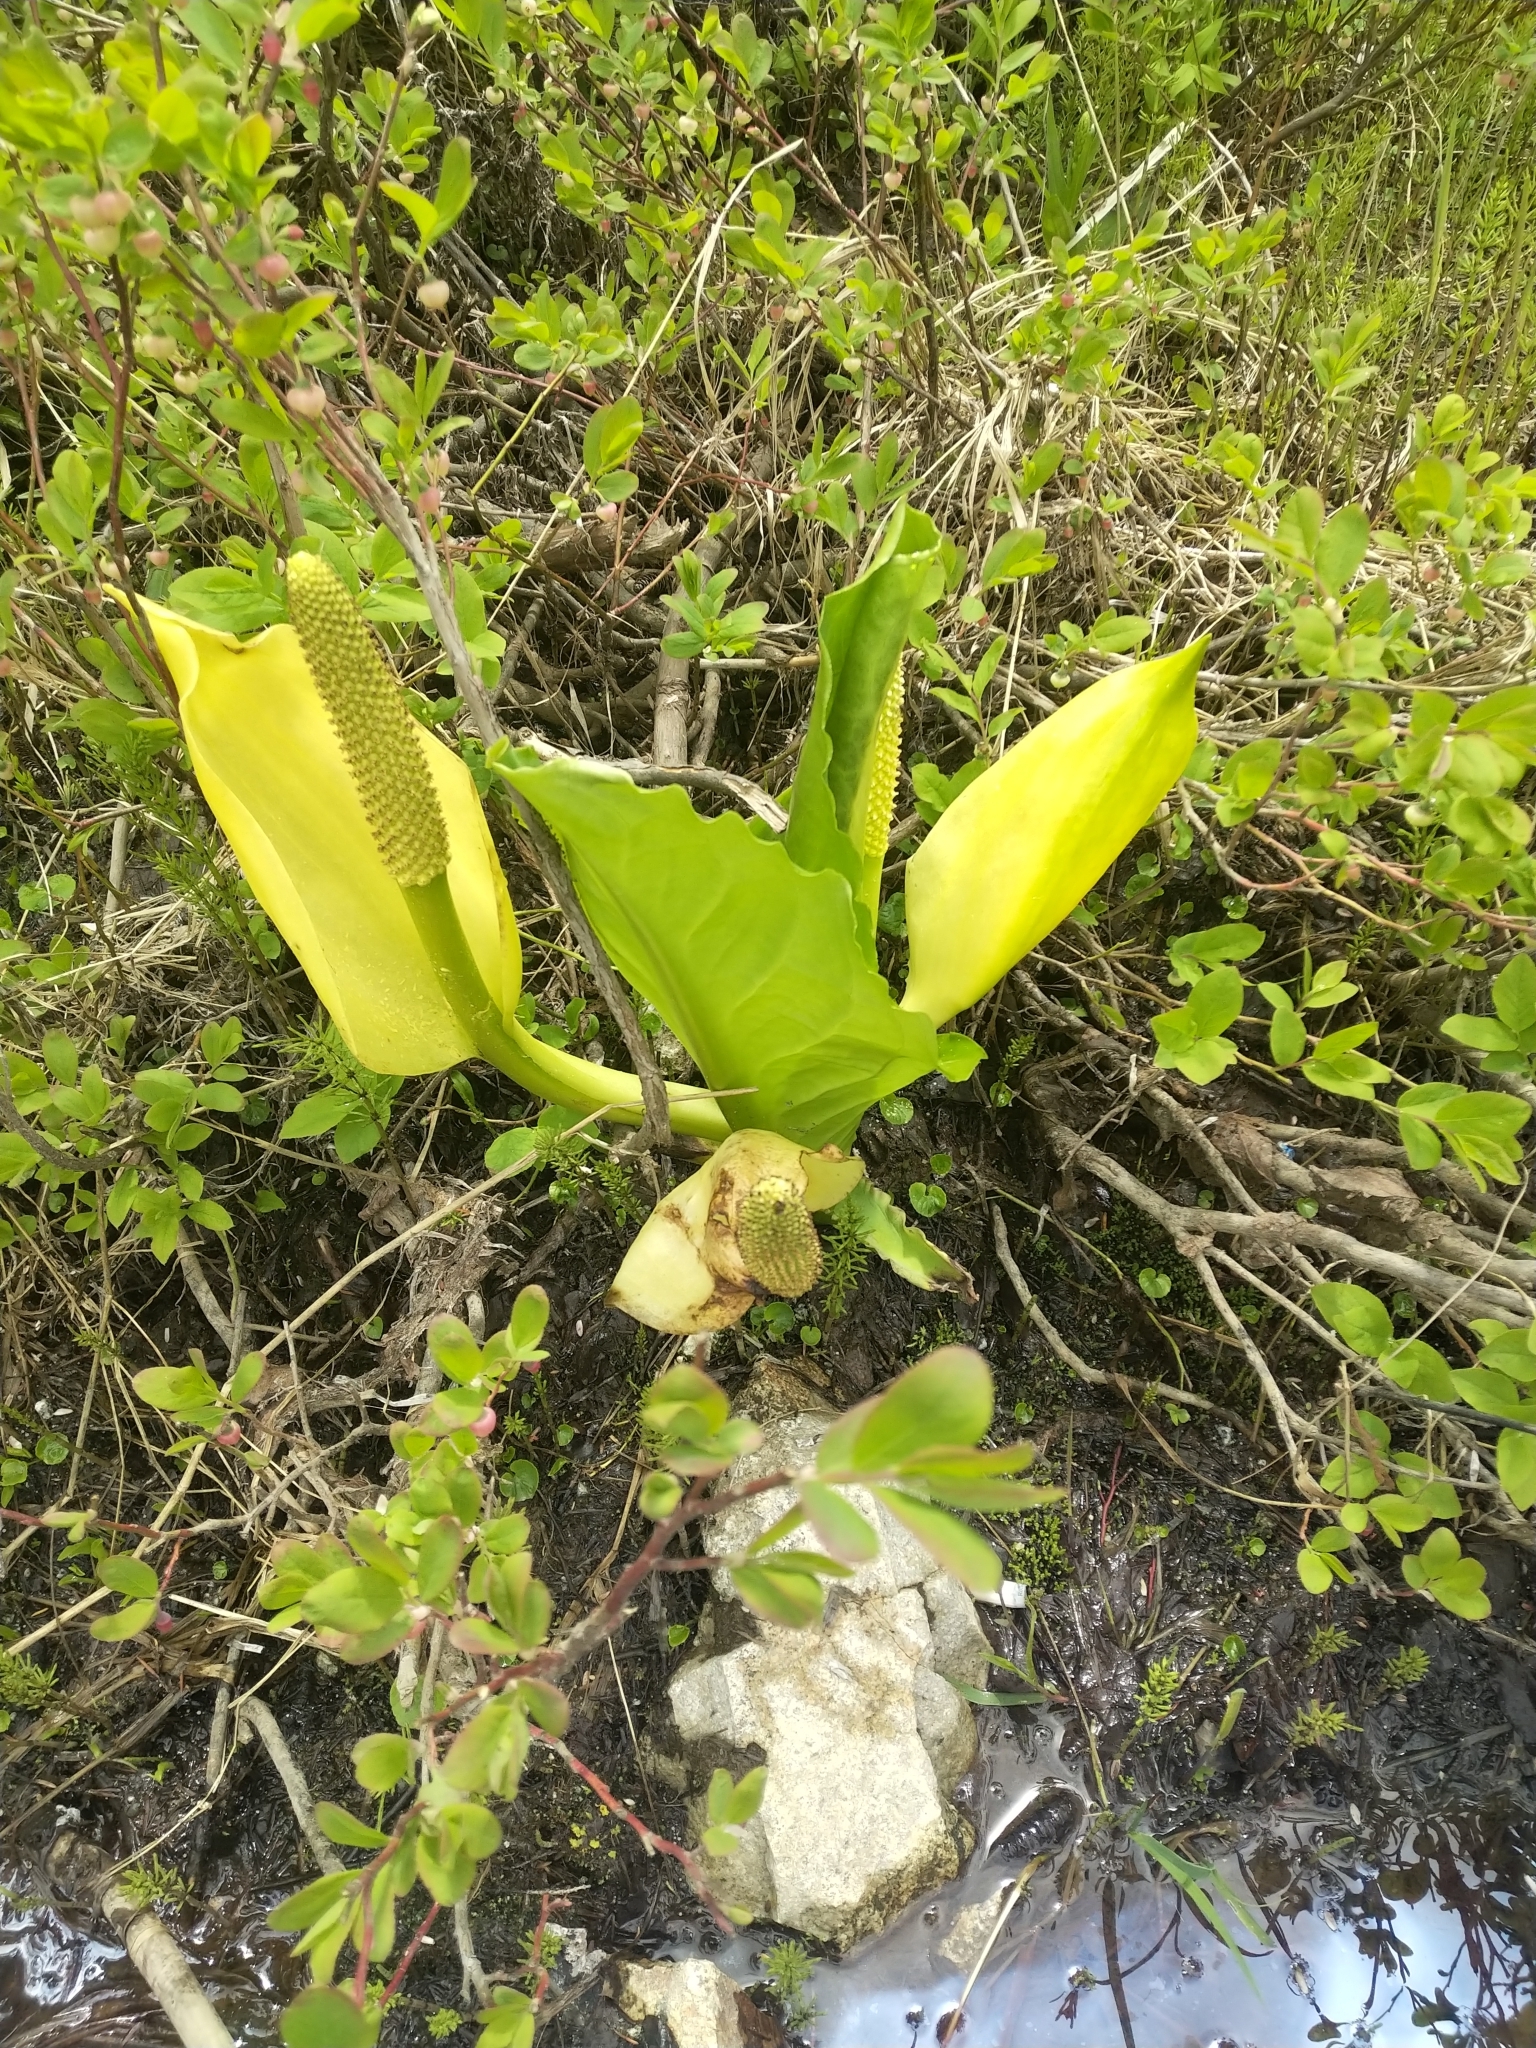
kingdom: Plantae
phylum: Tracheophyta
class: Liliopsida
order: Alismatales
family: Araceae
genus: Lysichiton
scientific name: Lysichiton americanus
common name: American skunk cabbage
